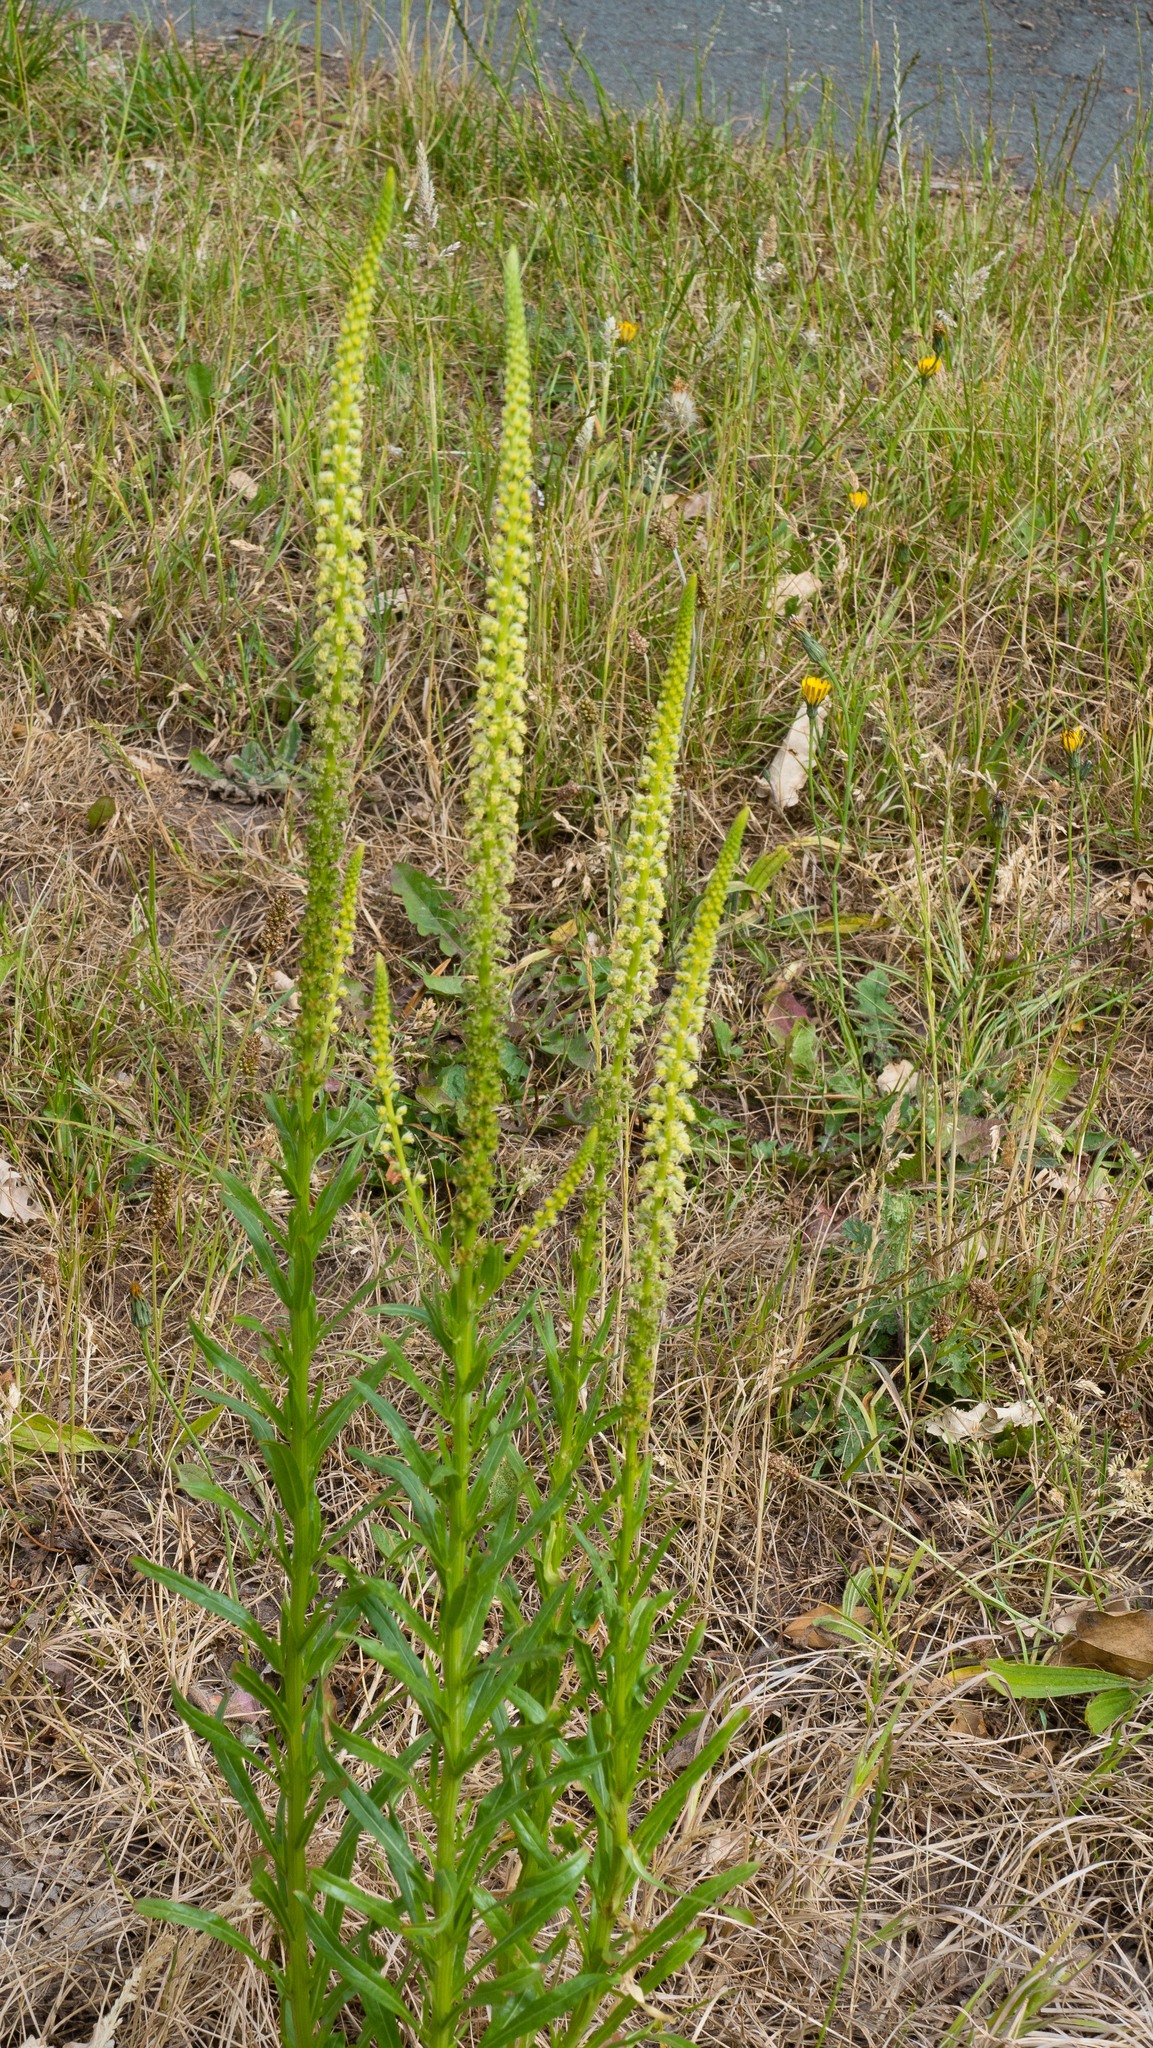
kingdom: Plantae
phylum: Tracheophyta
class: Magnoliopsida
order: Brassicales
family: Resedaceae
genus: Reseda
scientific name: Reseda luteola
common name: Weld
